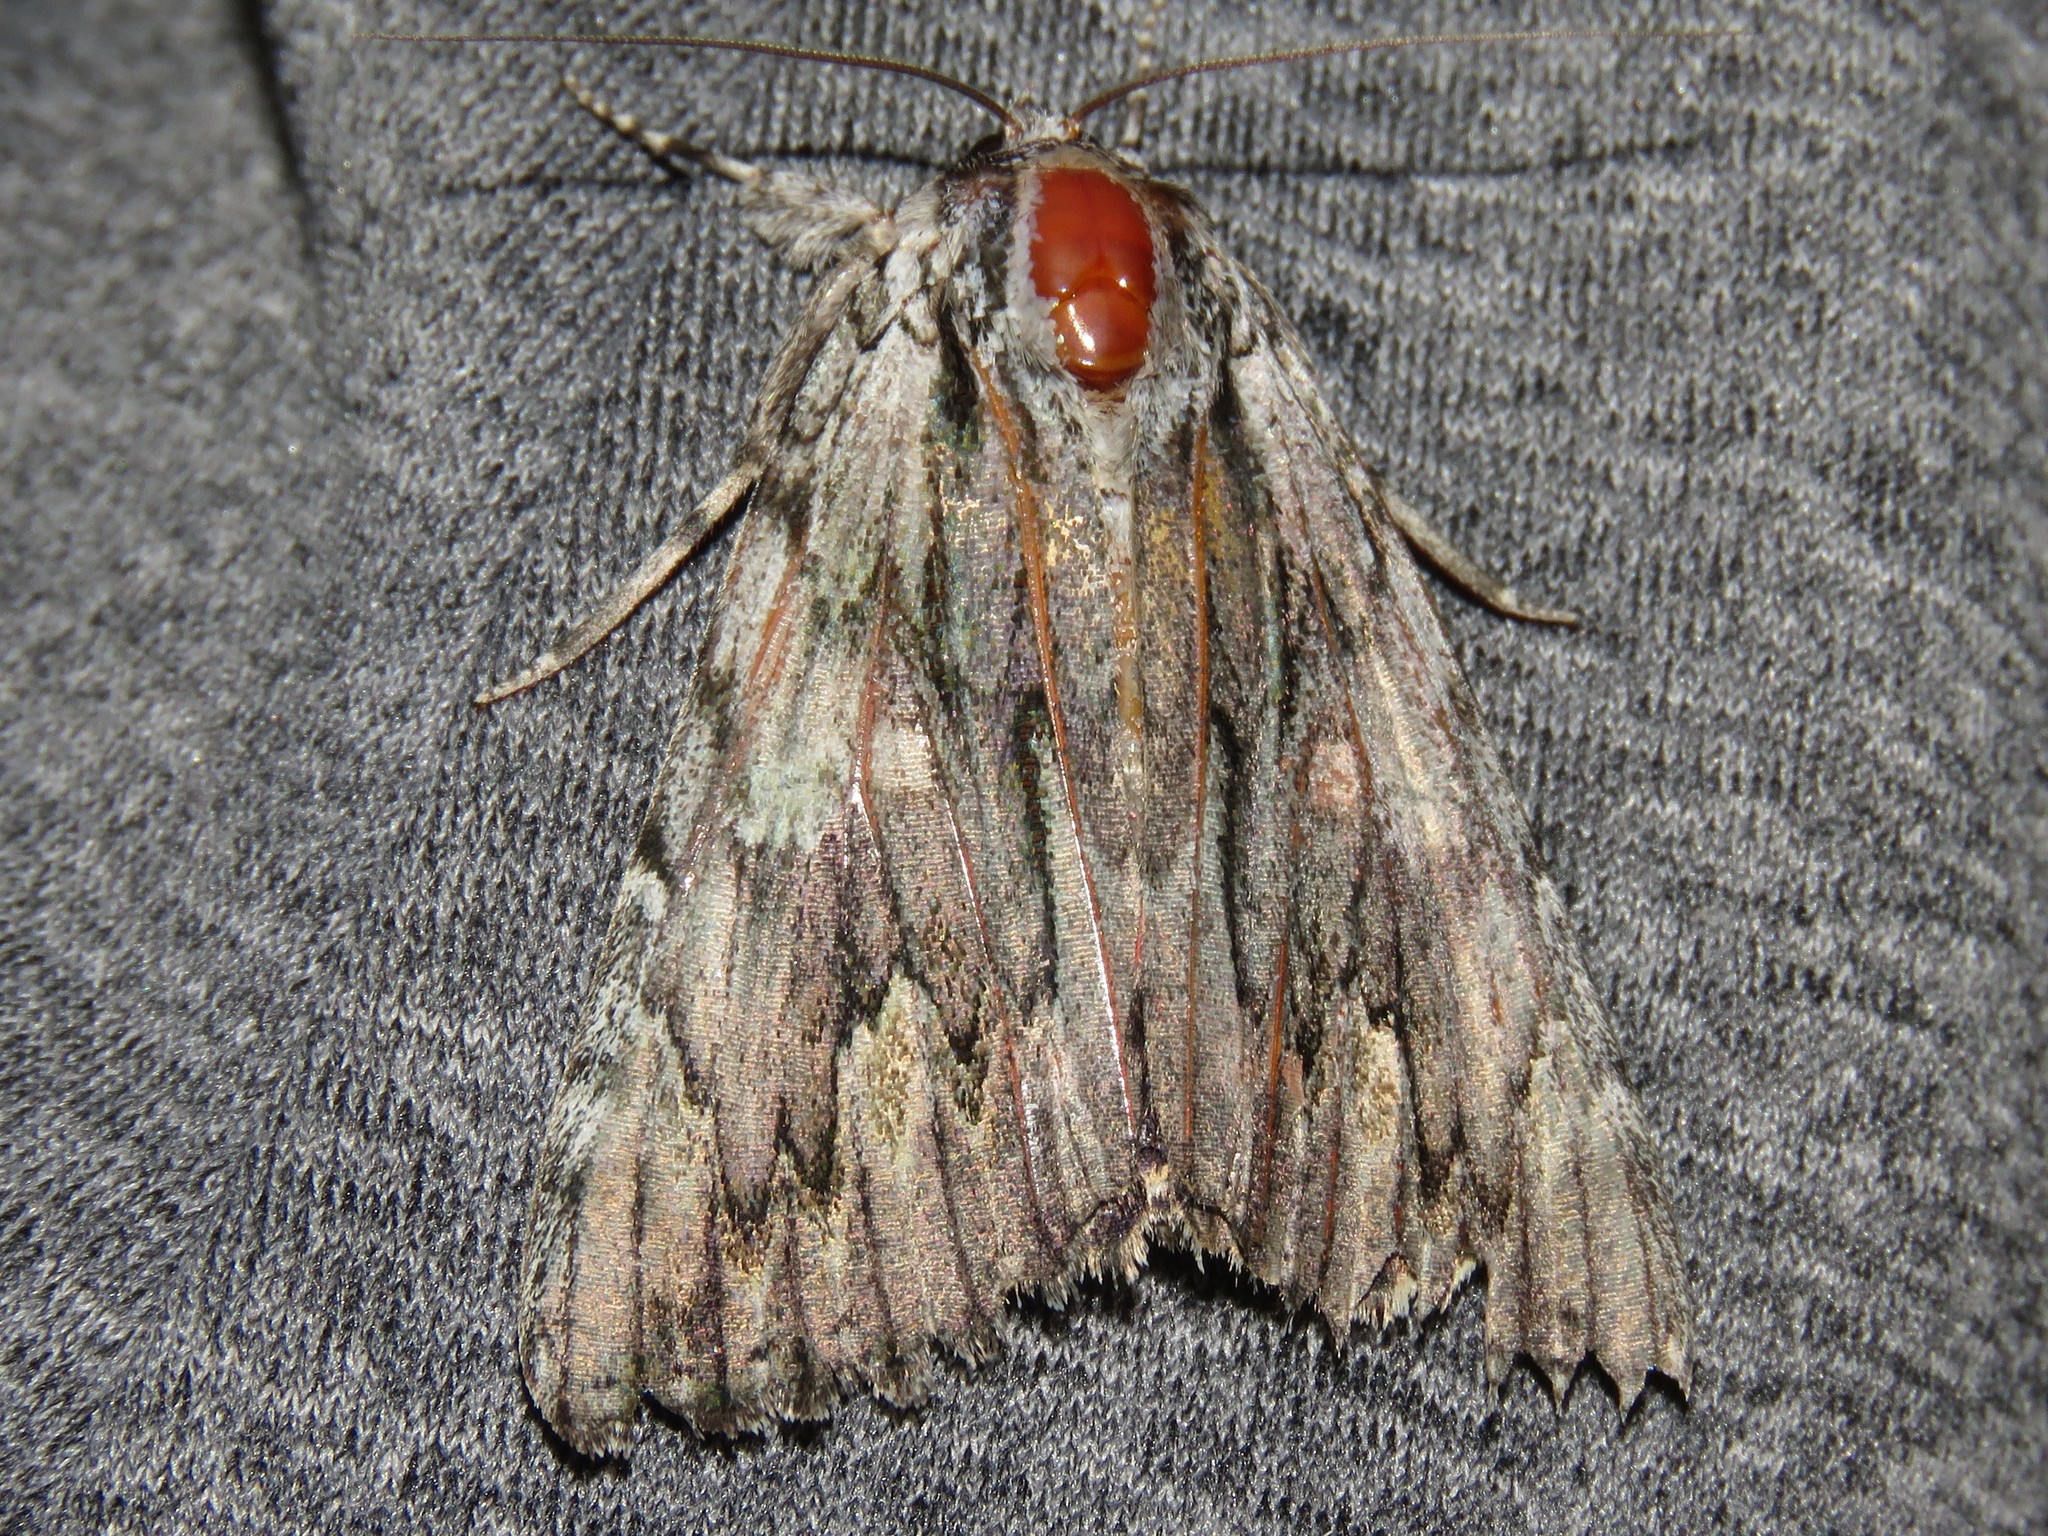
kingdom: Animalia
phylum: Arthropoda
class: Insecta
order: Lepidoptera
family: Erebidae
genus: Catocala
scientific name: Catocala coccinata
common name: Scarlet underwing
